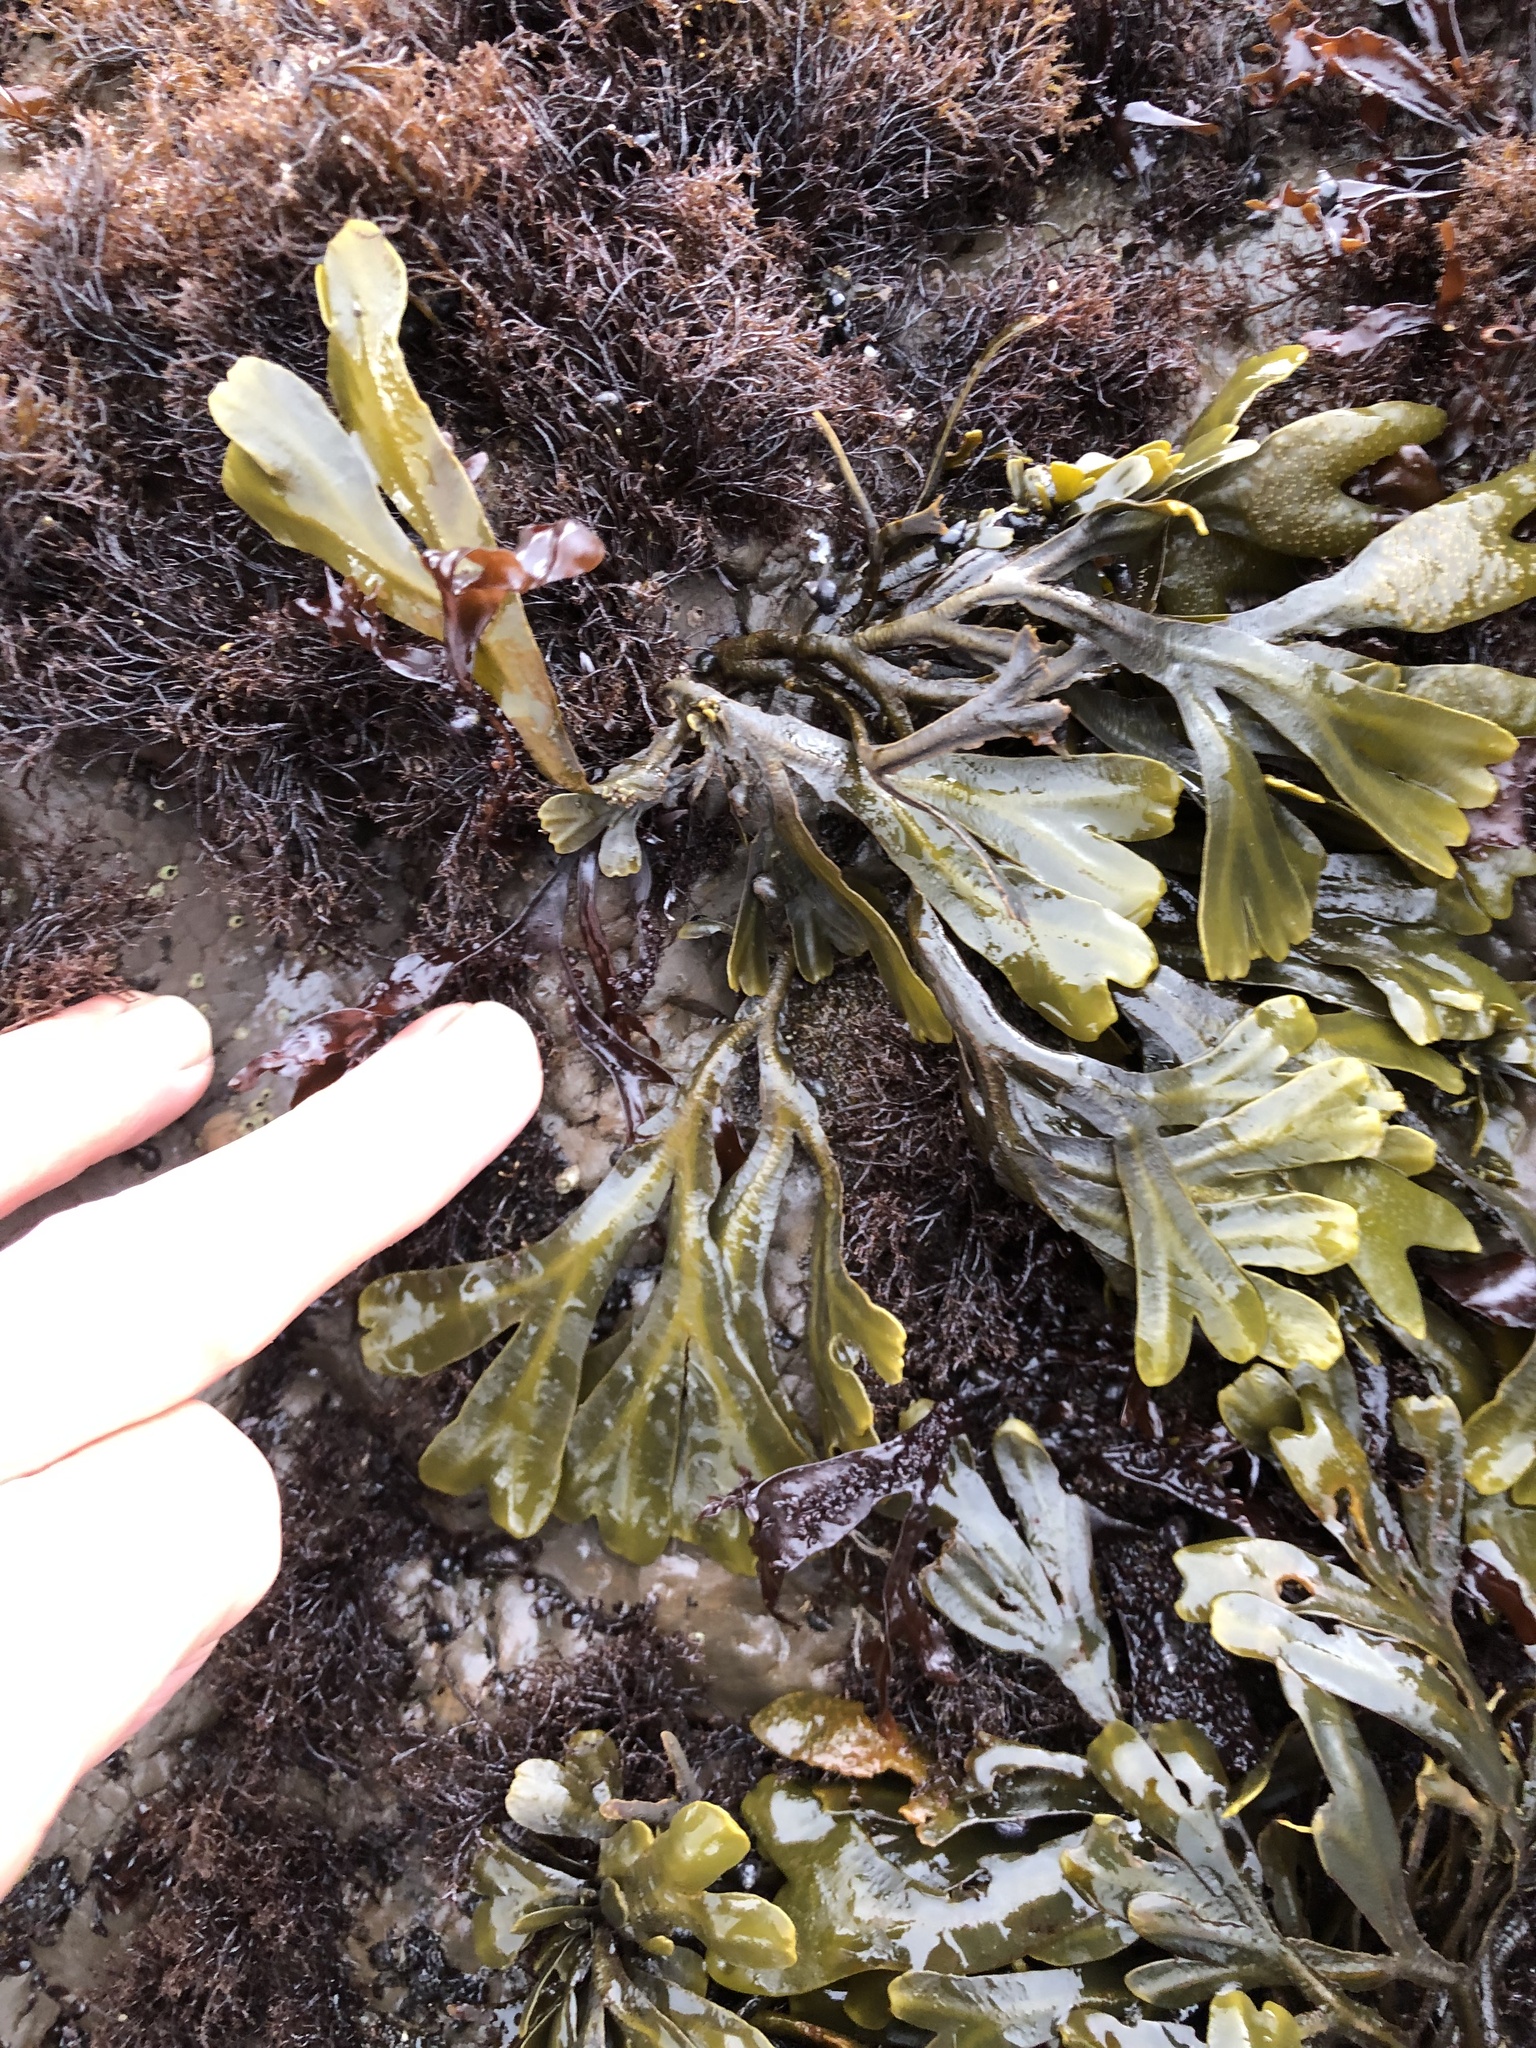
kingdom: Chromista
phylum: Ochrophyta
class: Phaeophyceae
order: Fucales
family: Fucaceae
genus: Fucus
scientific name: Fucus distichus
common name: Rockweed
